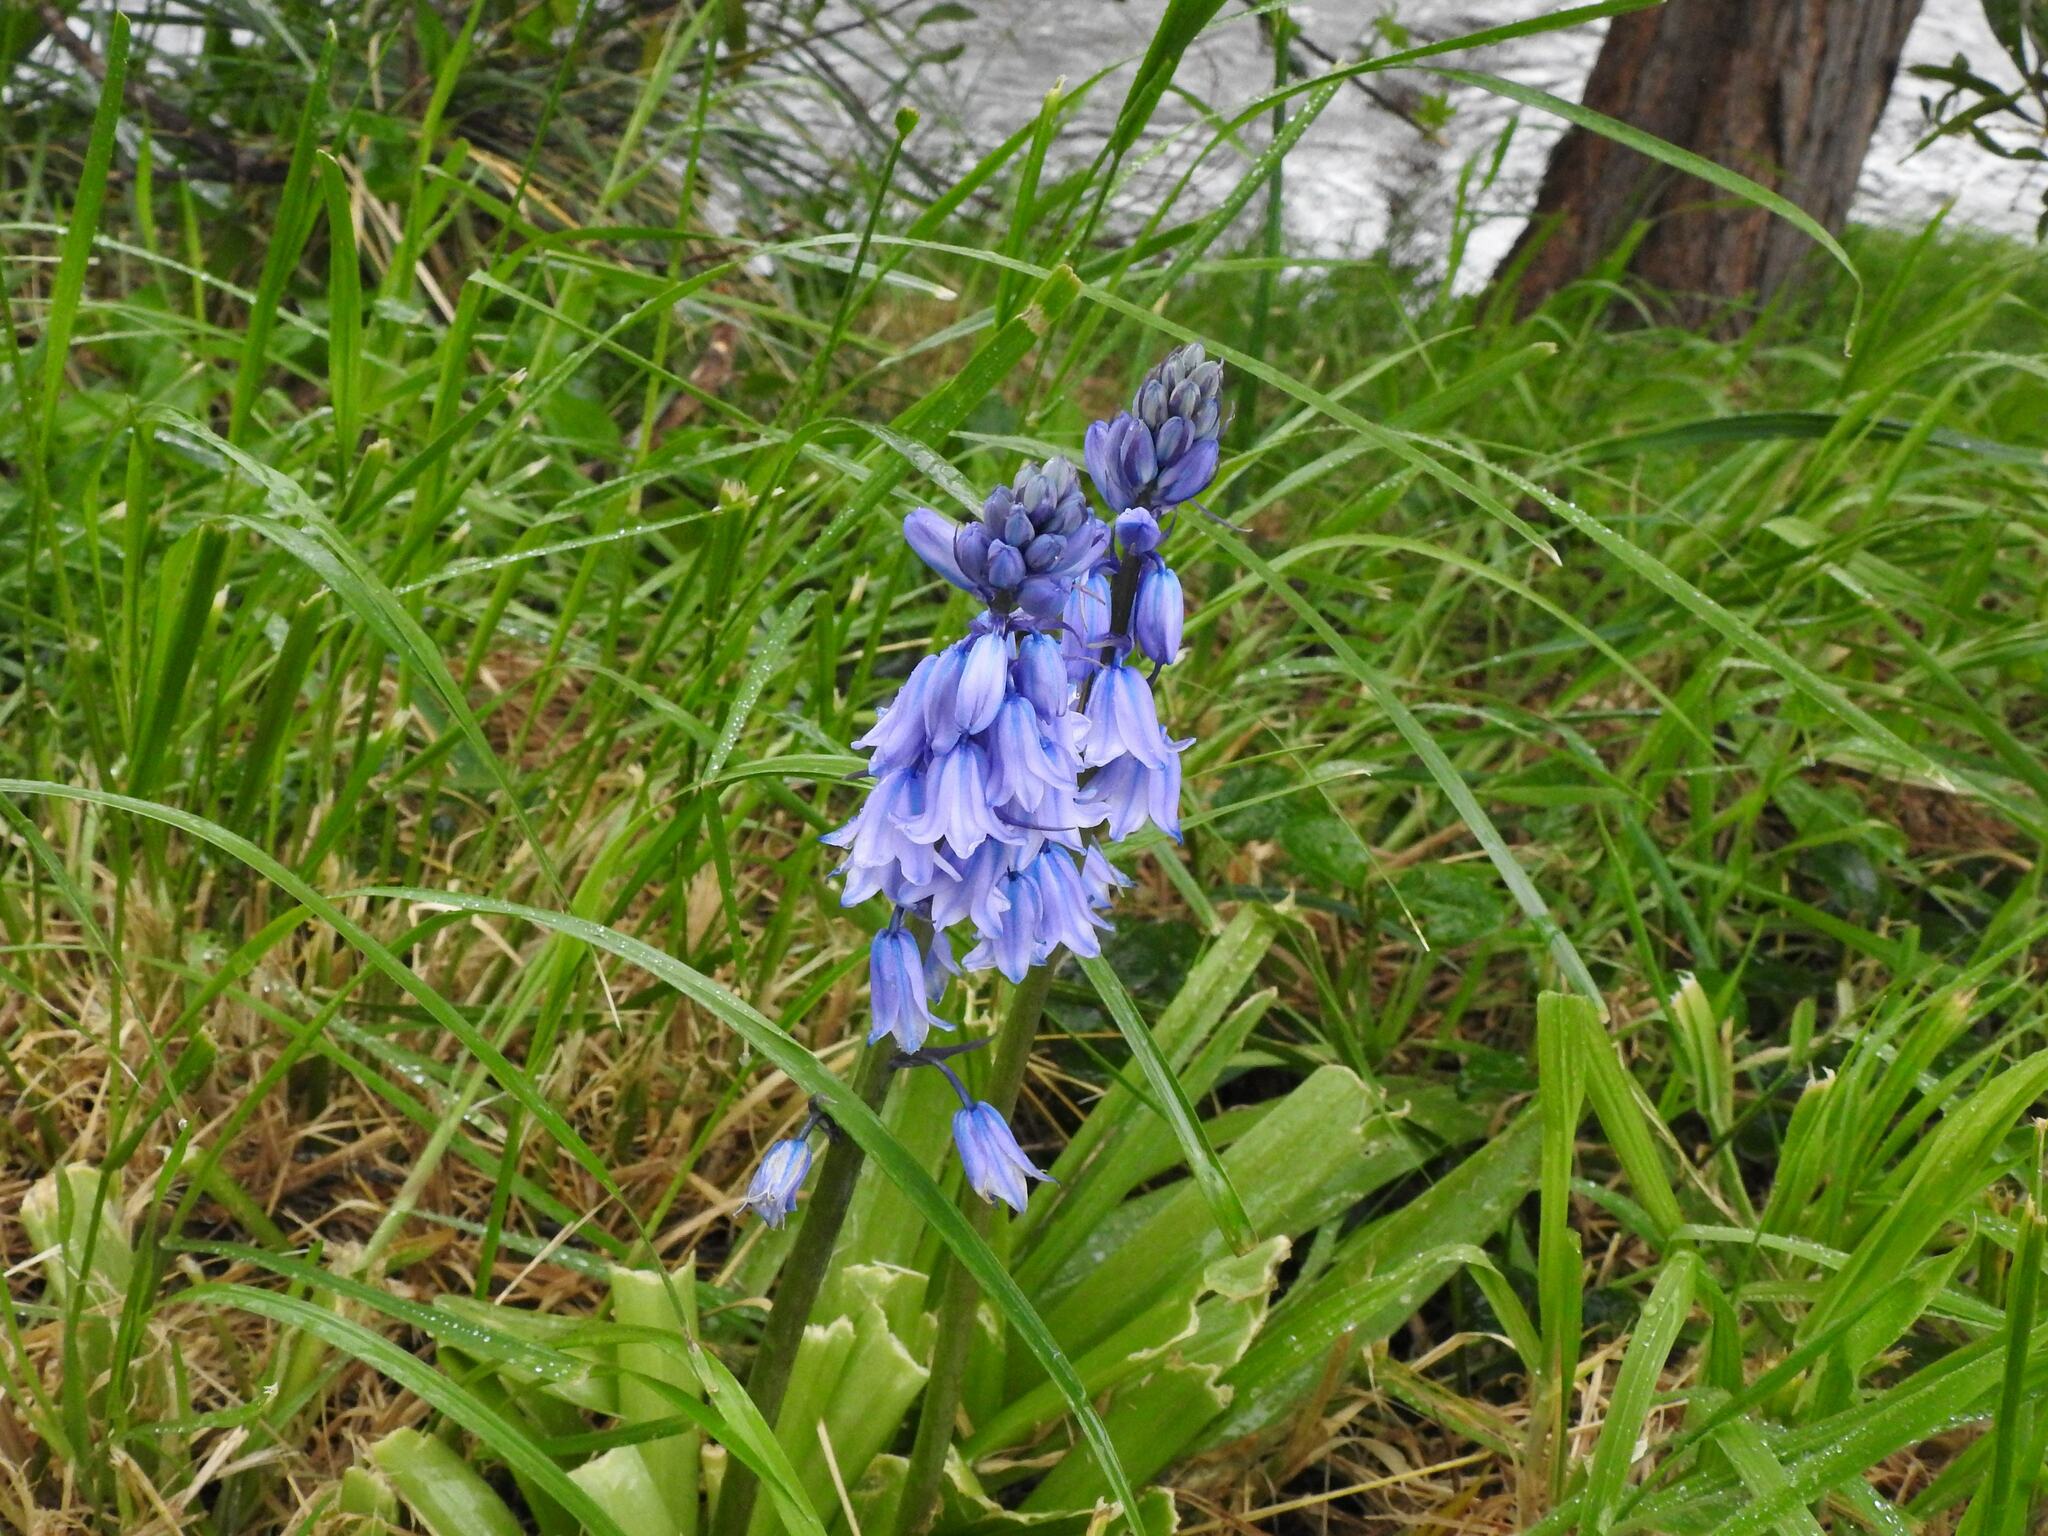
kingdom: Plantae
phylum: Tracheophyta
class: Liliopsida
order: Asparagales
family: Asparagaceae
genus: Hyacinthoides
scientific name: Hyacinthoides non-scripta
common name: Bluebell
